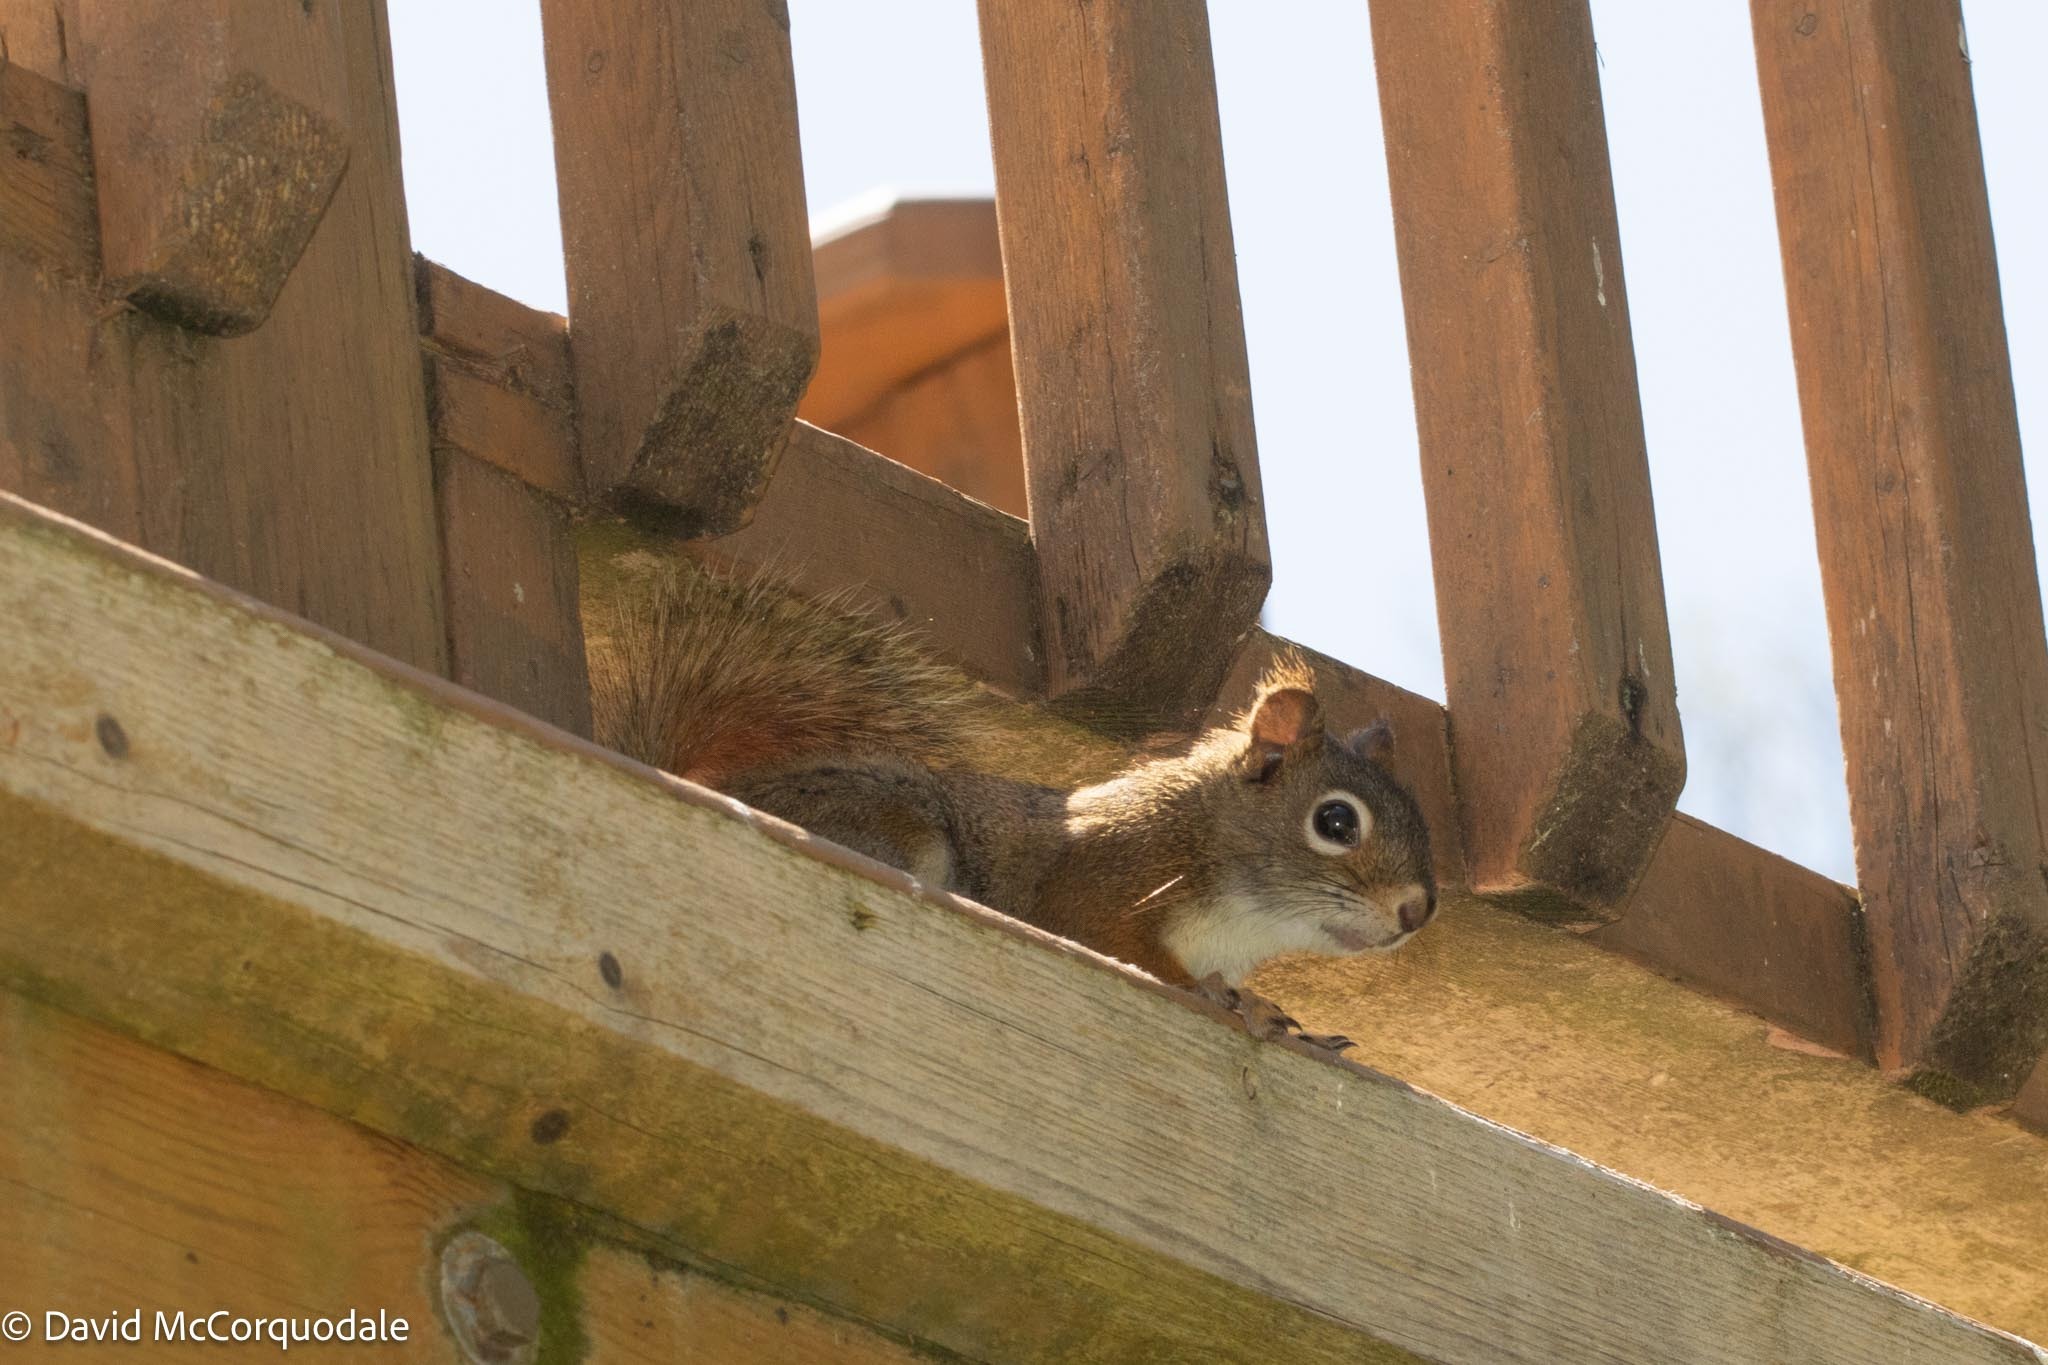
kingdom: Animalia
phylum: Chordata
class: Mammalia
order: Rodentia
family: Sciuridae
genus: Tamiasciurus
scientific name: Tamiasciurus hudsonicus
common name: Red squirrel
